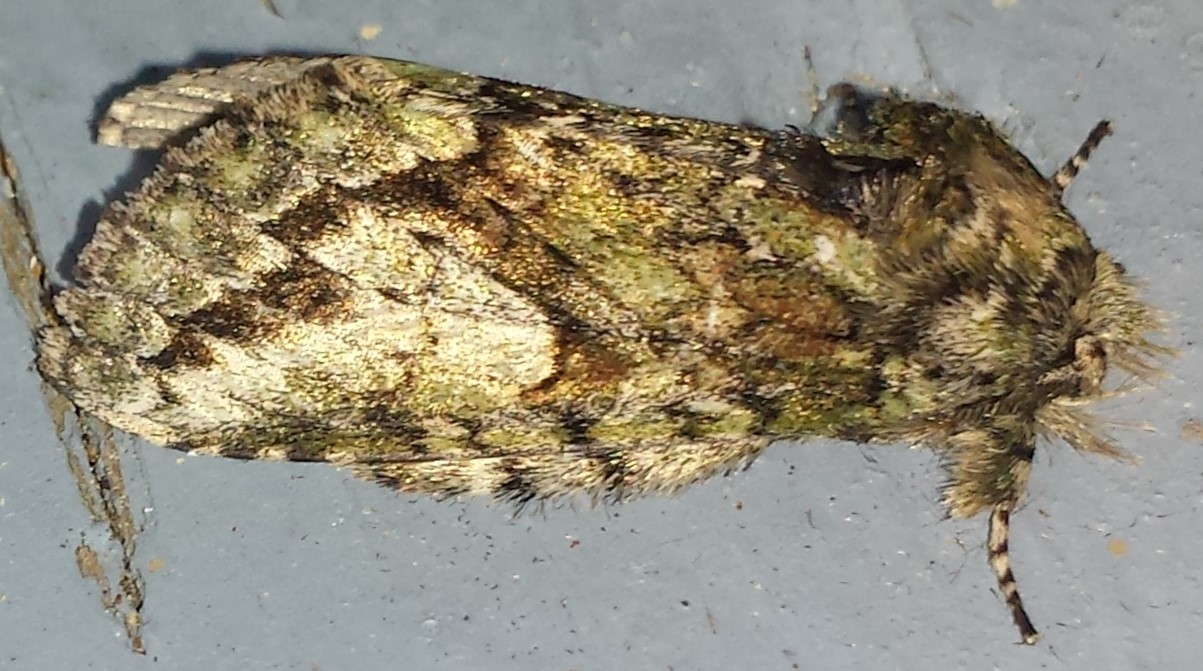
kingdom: Animalia
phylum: Arthropoda
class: Insecta
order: Lepidoptera
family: Notodontidae
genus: Heterocampa
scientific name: Heterocampa
